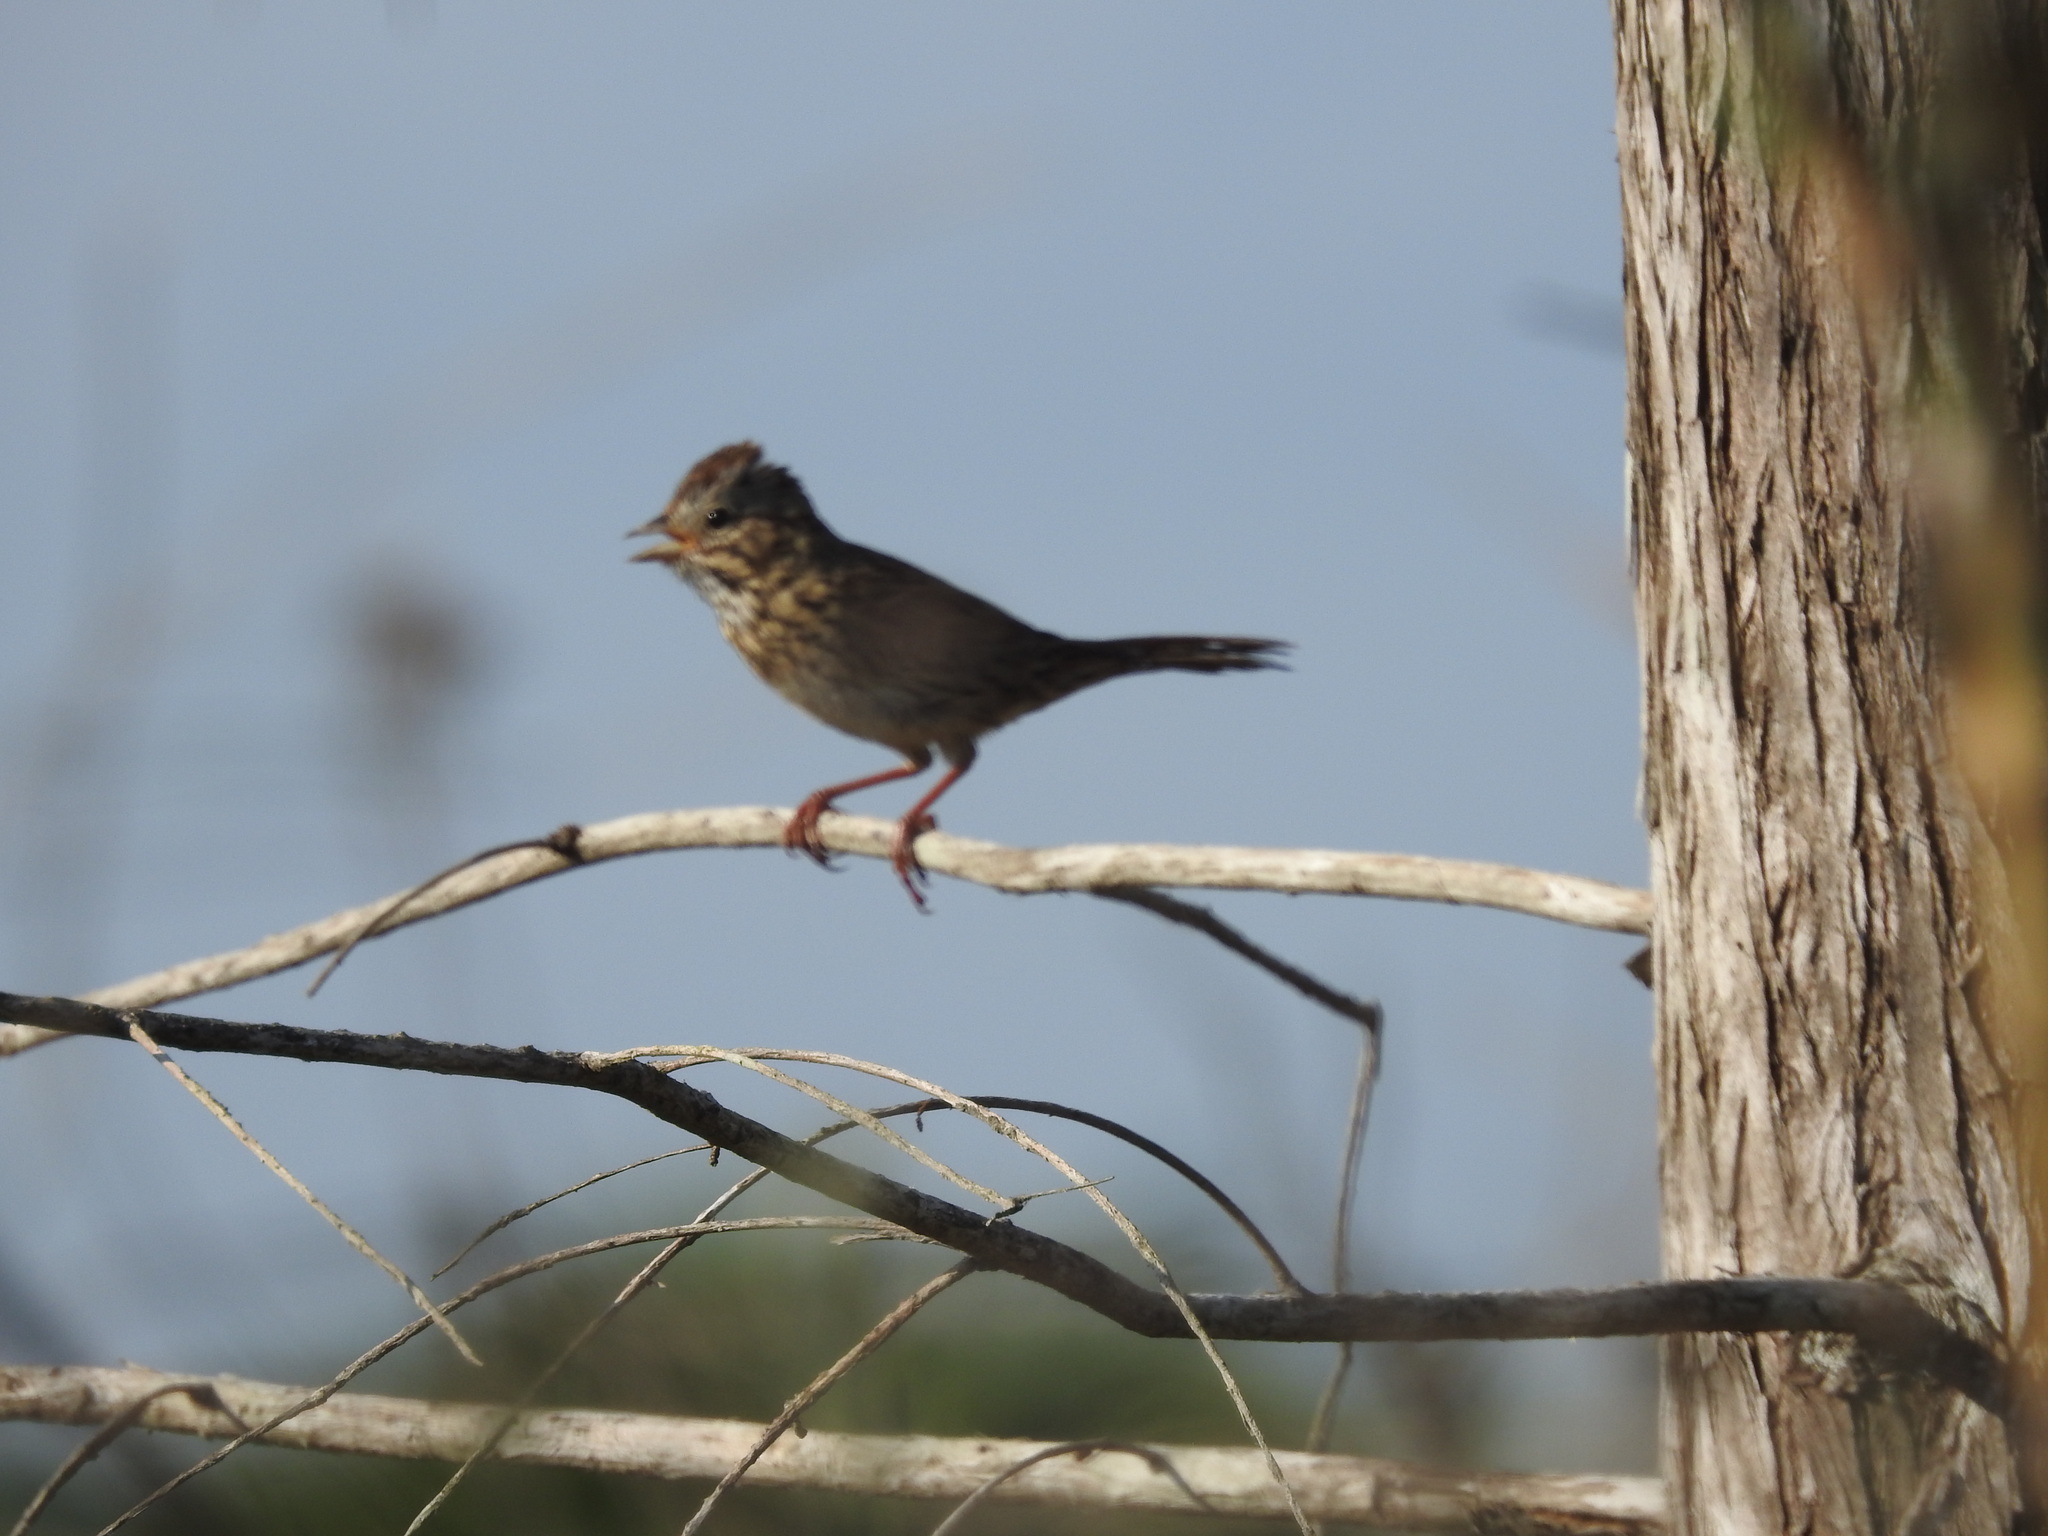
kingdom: Animalia
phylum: Chordata
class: Aves
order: Passeriformes
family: Passerellidae
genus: Melospiza
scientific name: Melospiza lincolnii
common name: Lincoln's sparrow
